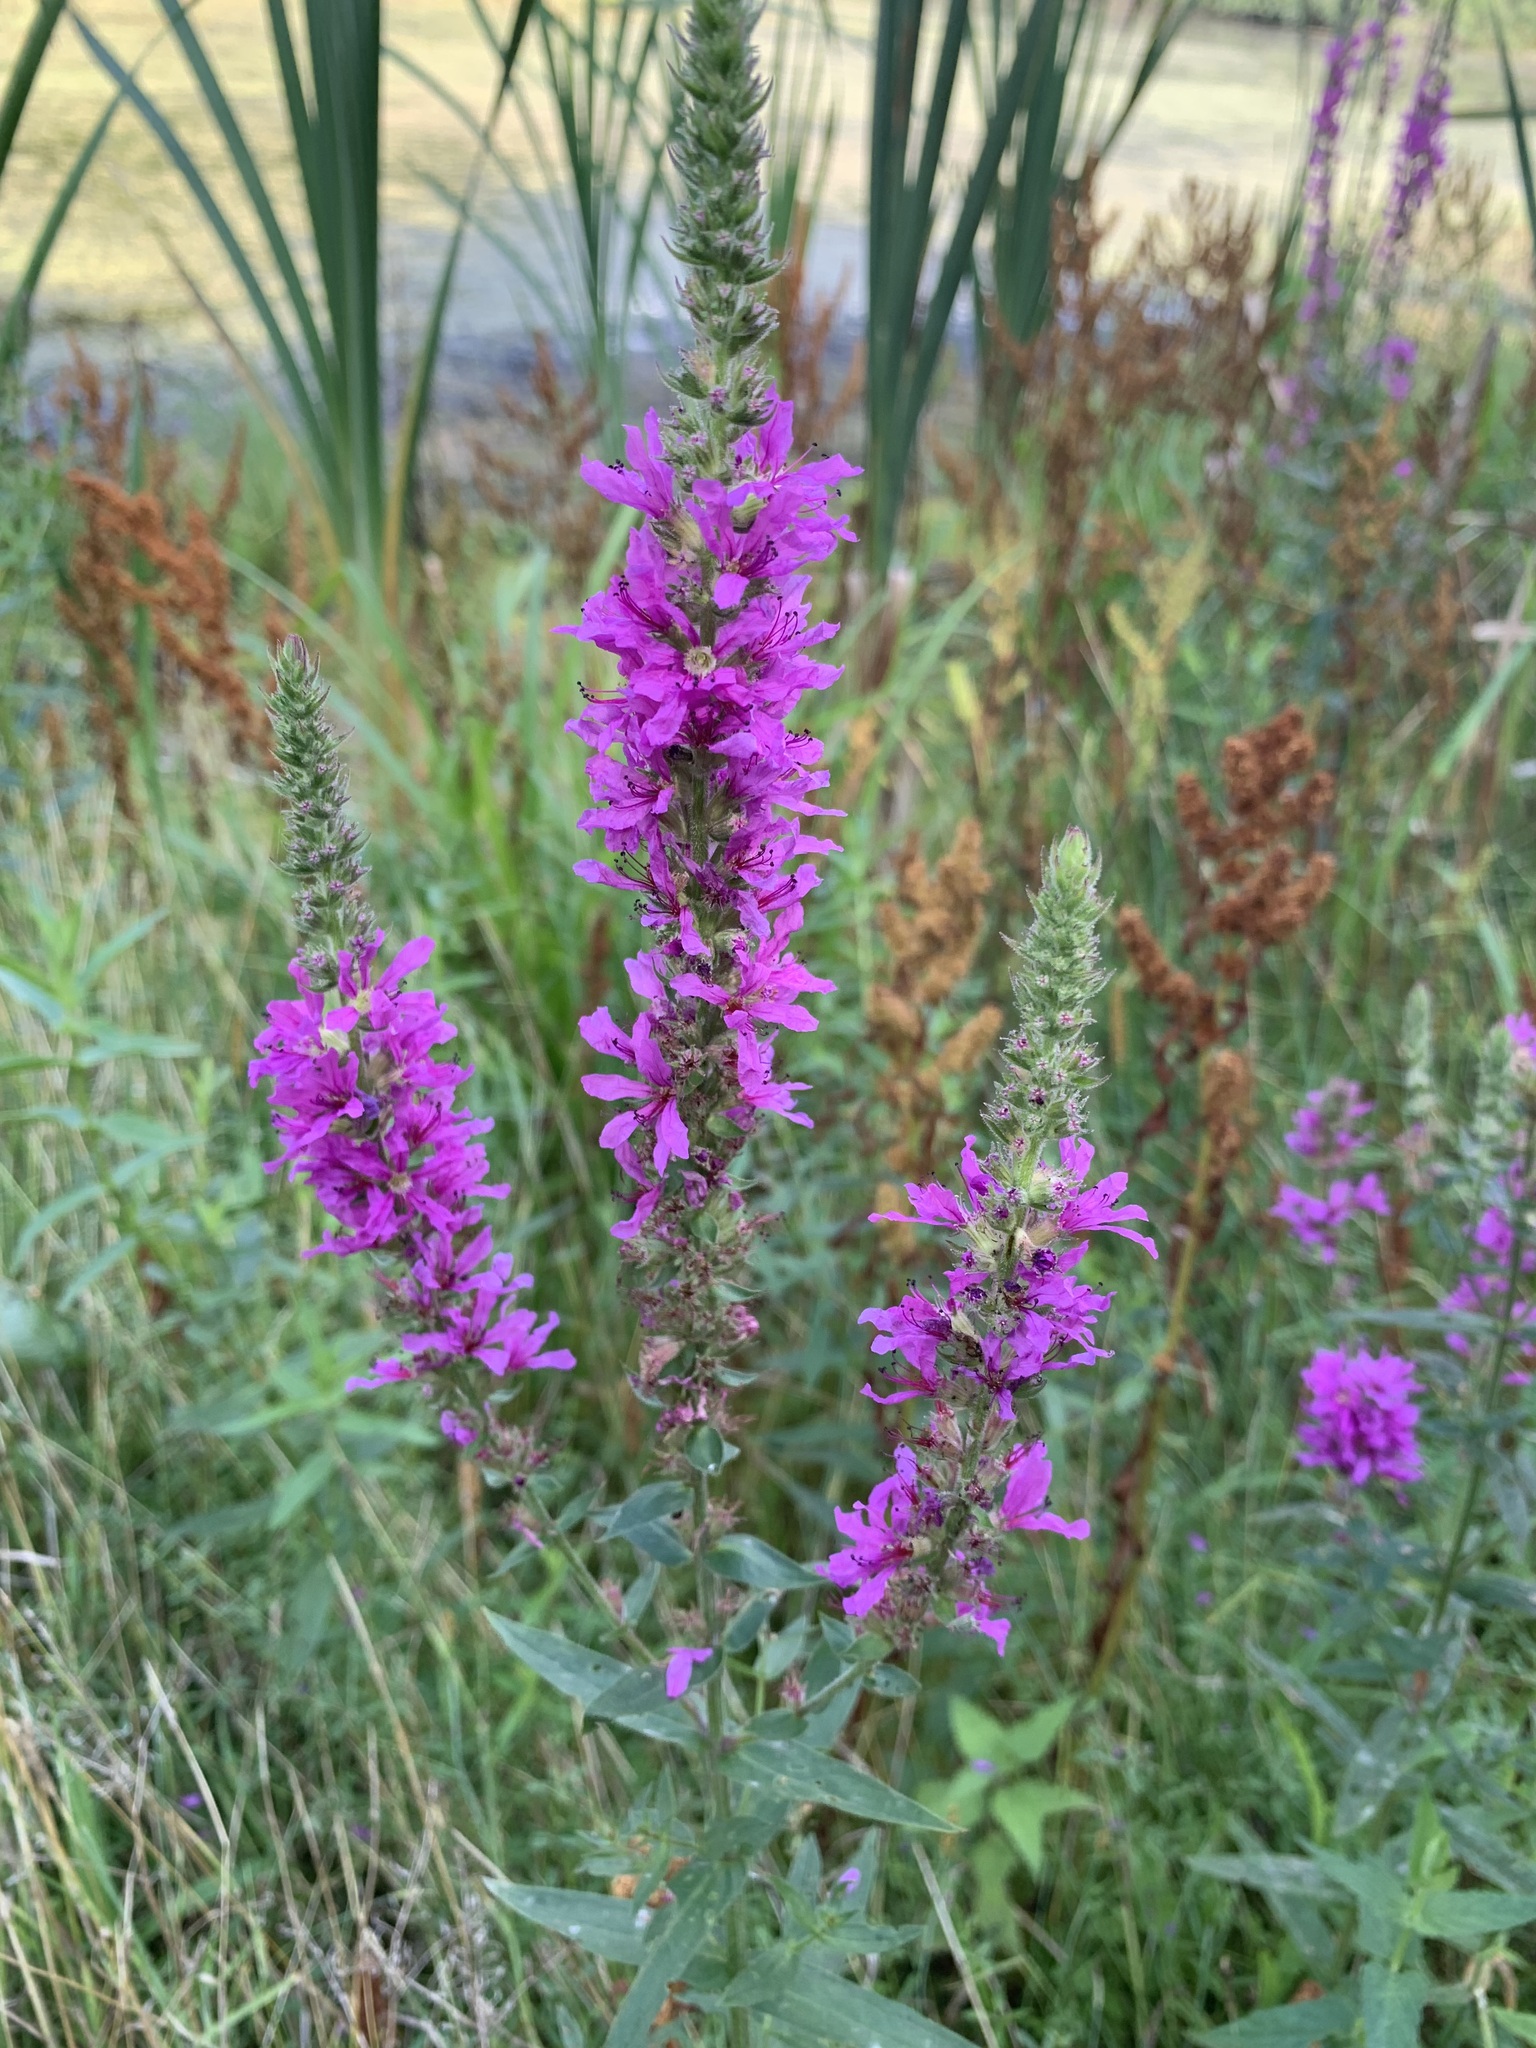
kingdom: Plantae
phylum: Tracheophyta
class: Magnoliopsida
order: Myrtales
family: Lythraceae
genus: Lythrum
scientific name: Lythrum salicaria
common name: Purple loosestrife
